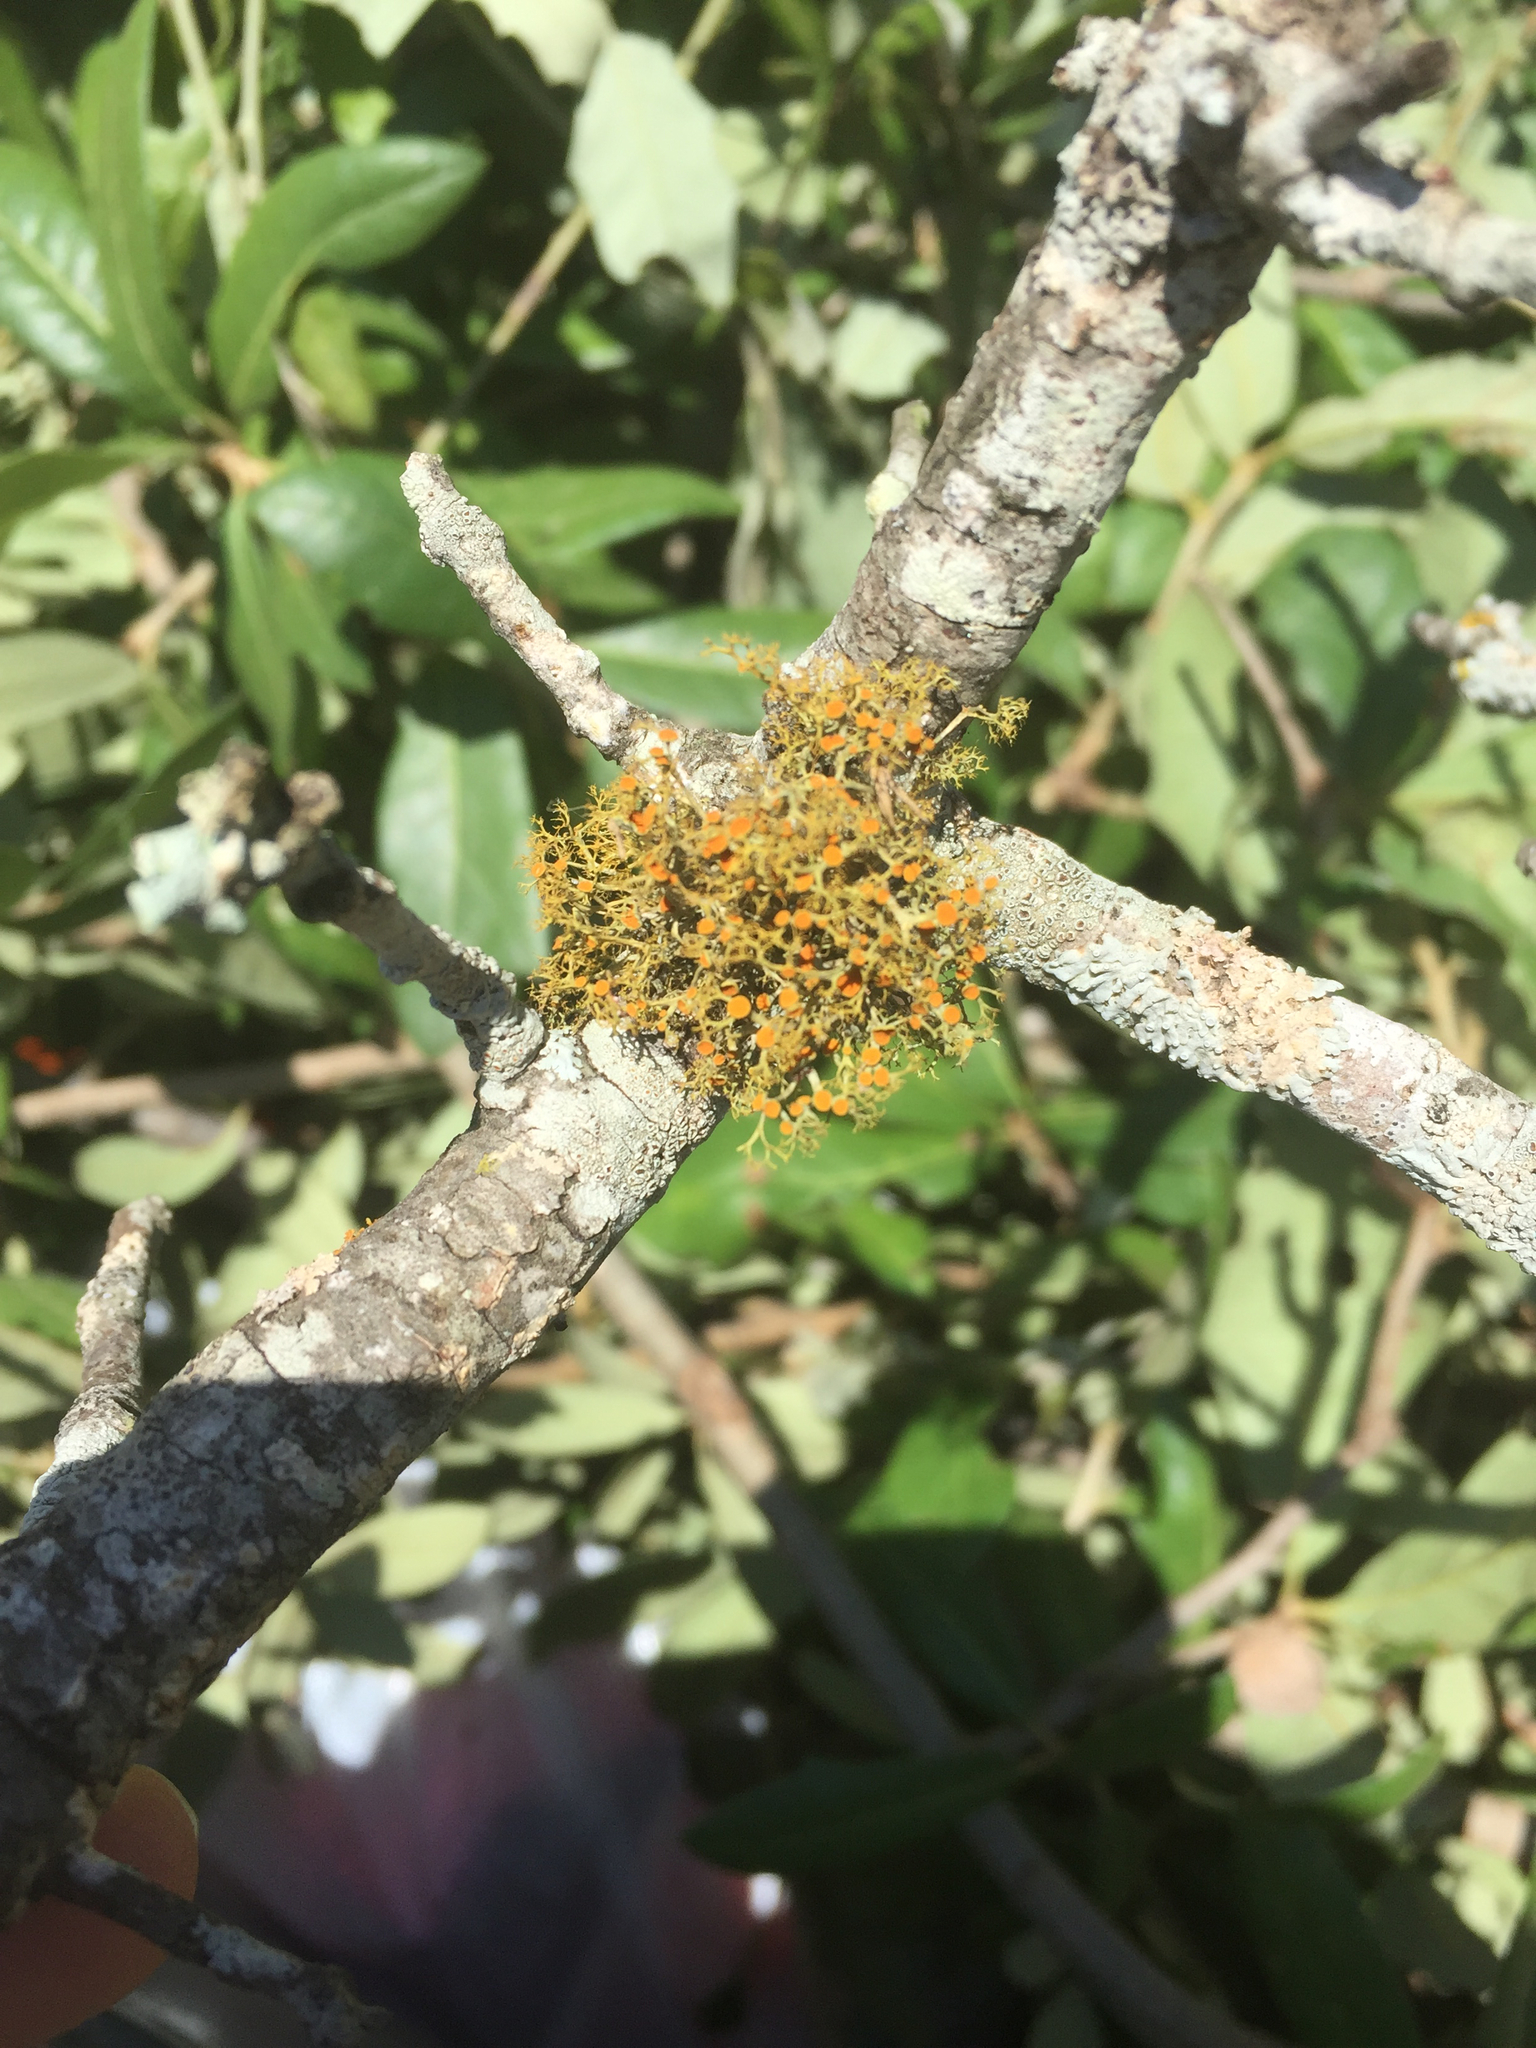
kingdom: Fungi
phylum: Ascomycota
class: Lecanoromycetes
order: Teloschistales
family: Teloschistaceae
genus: Teloschistes
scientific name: Teloschistes exilis
